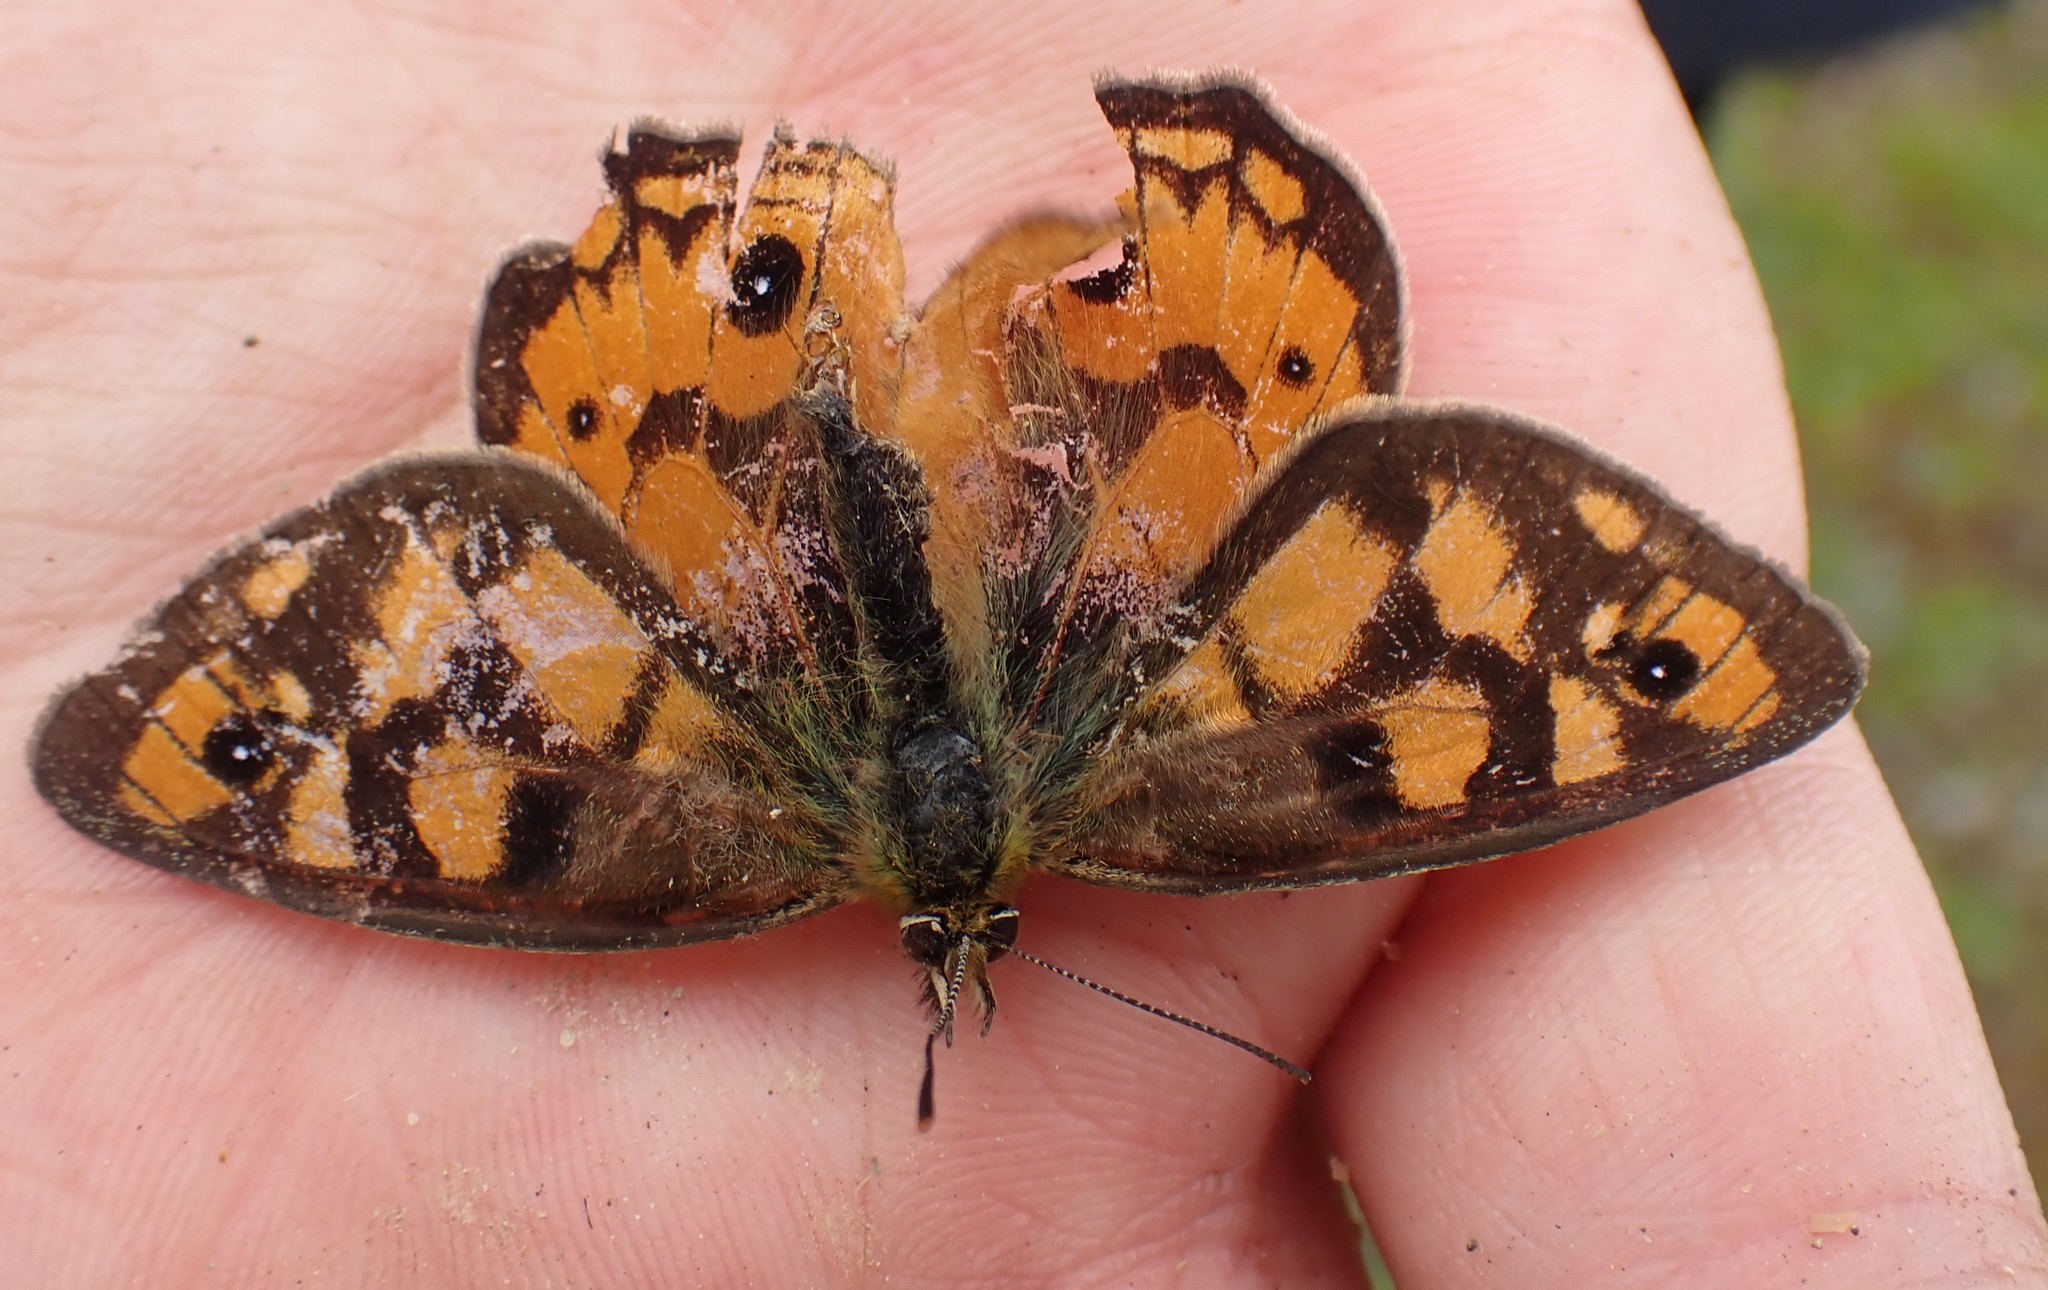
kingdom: Animalia
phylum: Arthropoda
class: Insecta
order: Lepidoptera
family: Nymphalidae
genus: Heteronympha
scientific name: Heteronympha penelope
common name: Shouldered brown
